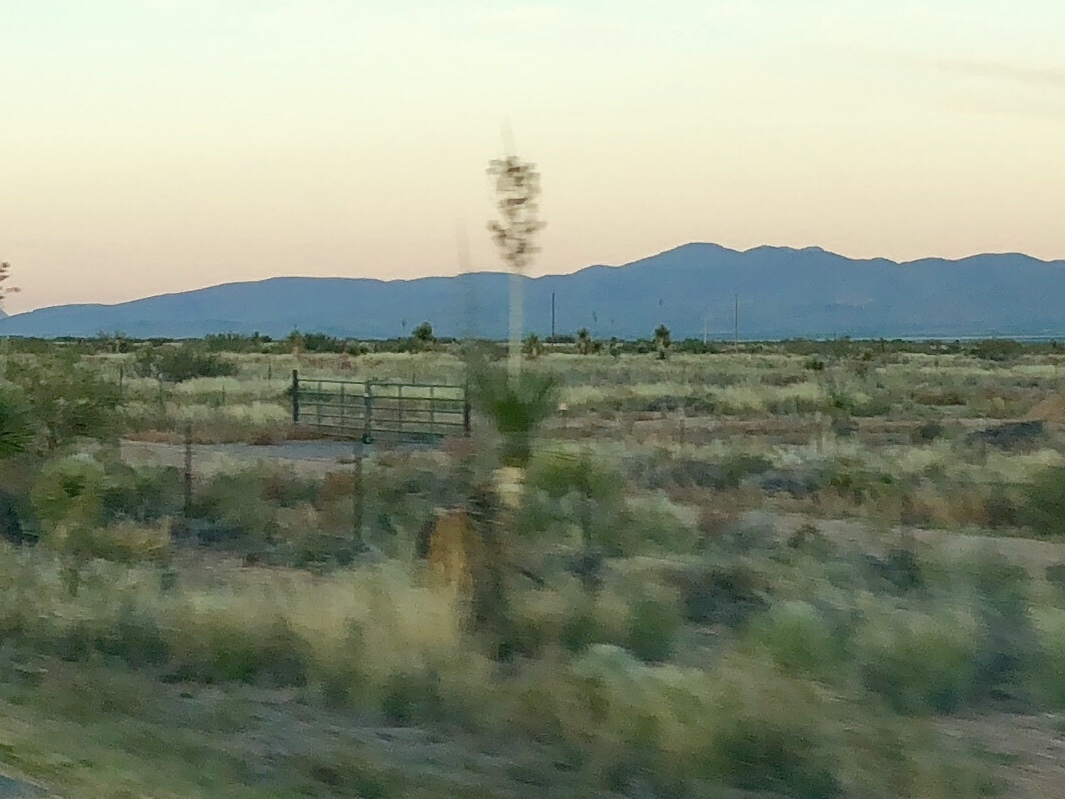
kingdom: Plantae
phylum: Tracheophyta
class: Liliopsida
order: Asparagales
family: Asparagaceae
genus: Yucca
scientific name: Yucca elata
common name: Palmella
